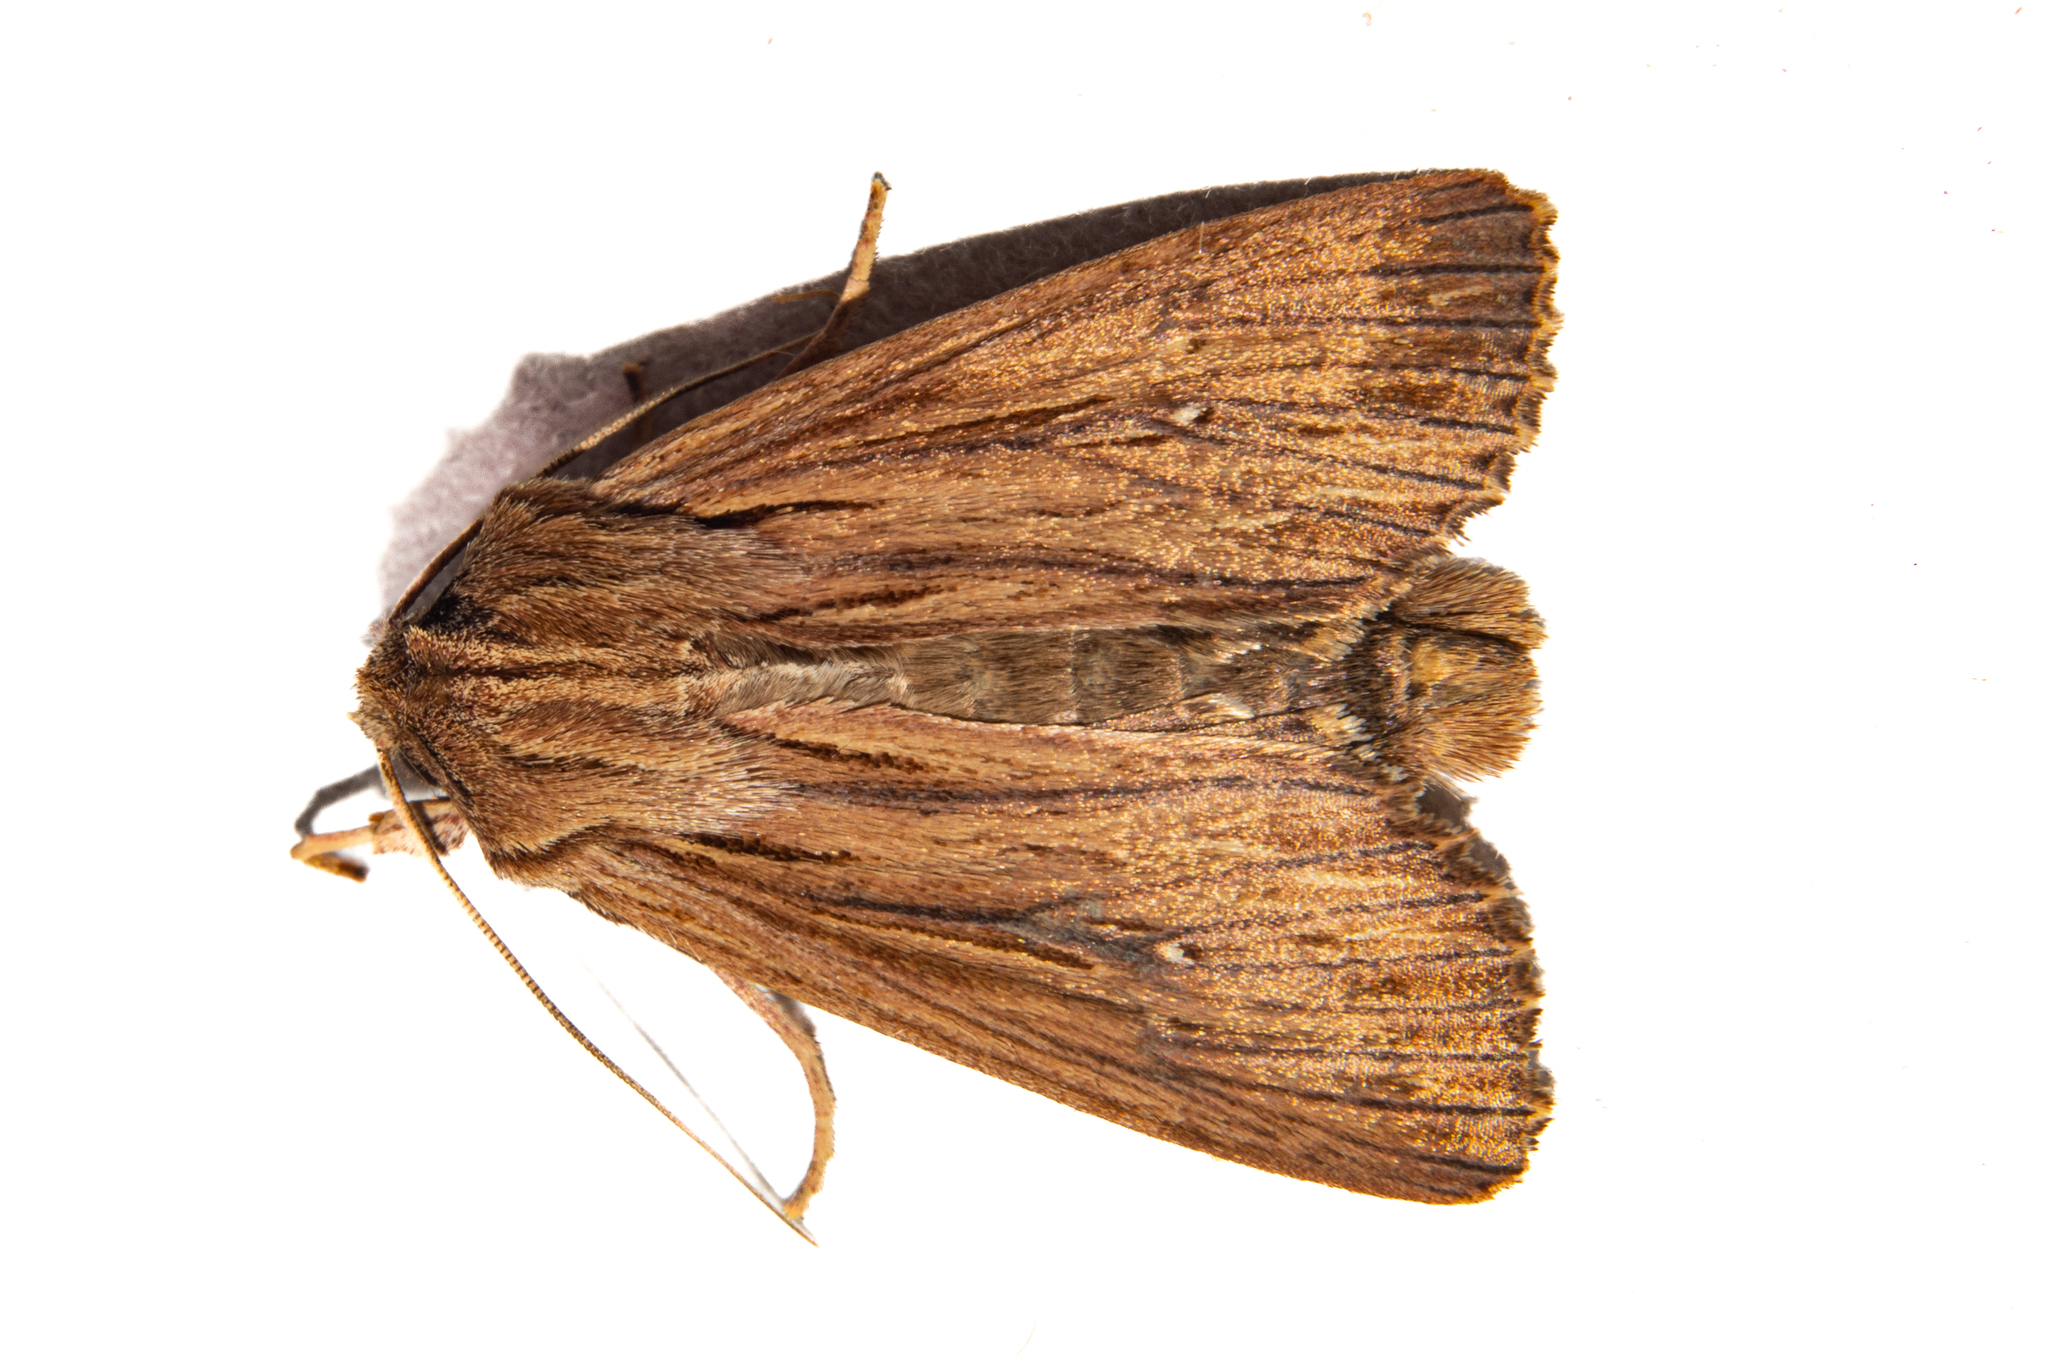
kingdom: Animalia
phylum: Arthropoda
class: Insecta
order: Lepidoptera
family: Noctuidae
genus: Ichneutica
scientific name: Ichneutica
